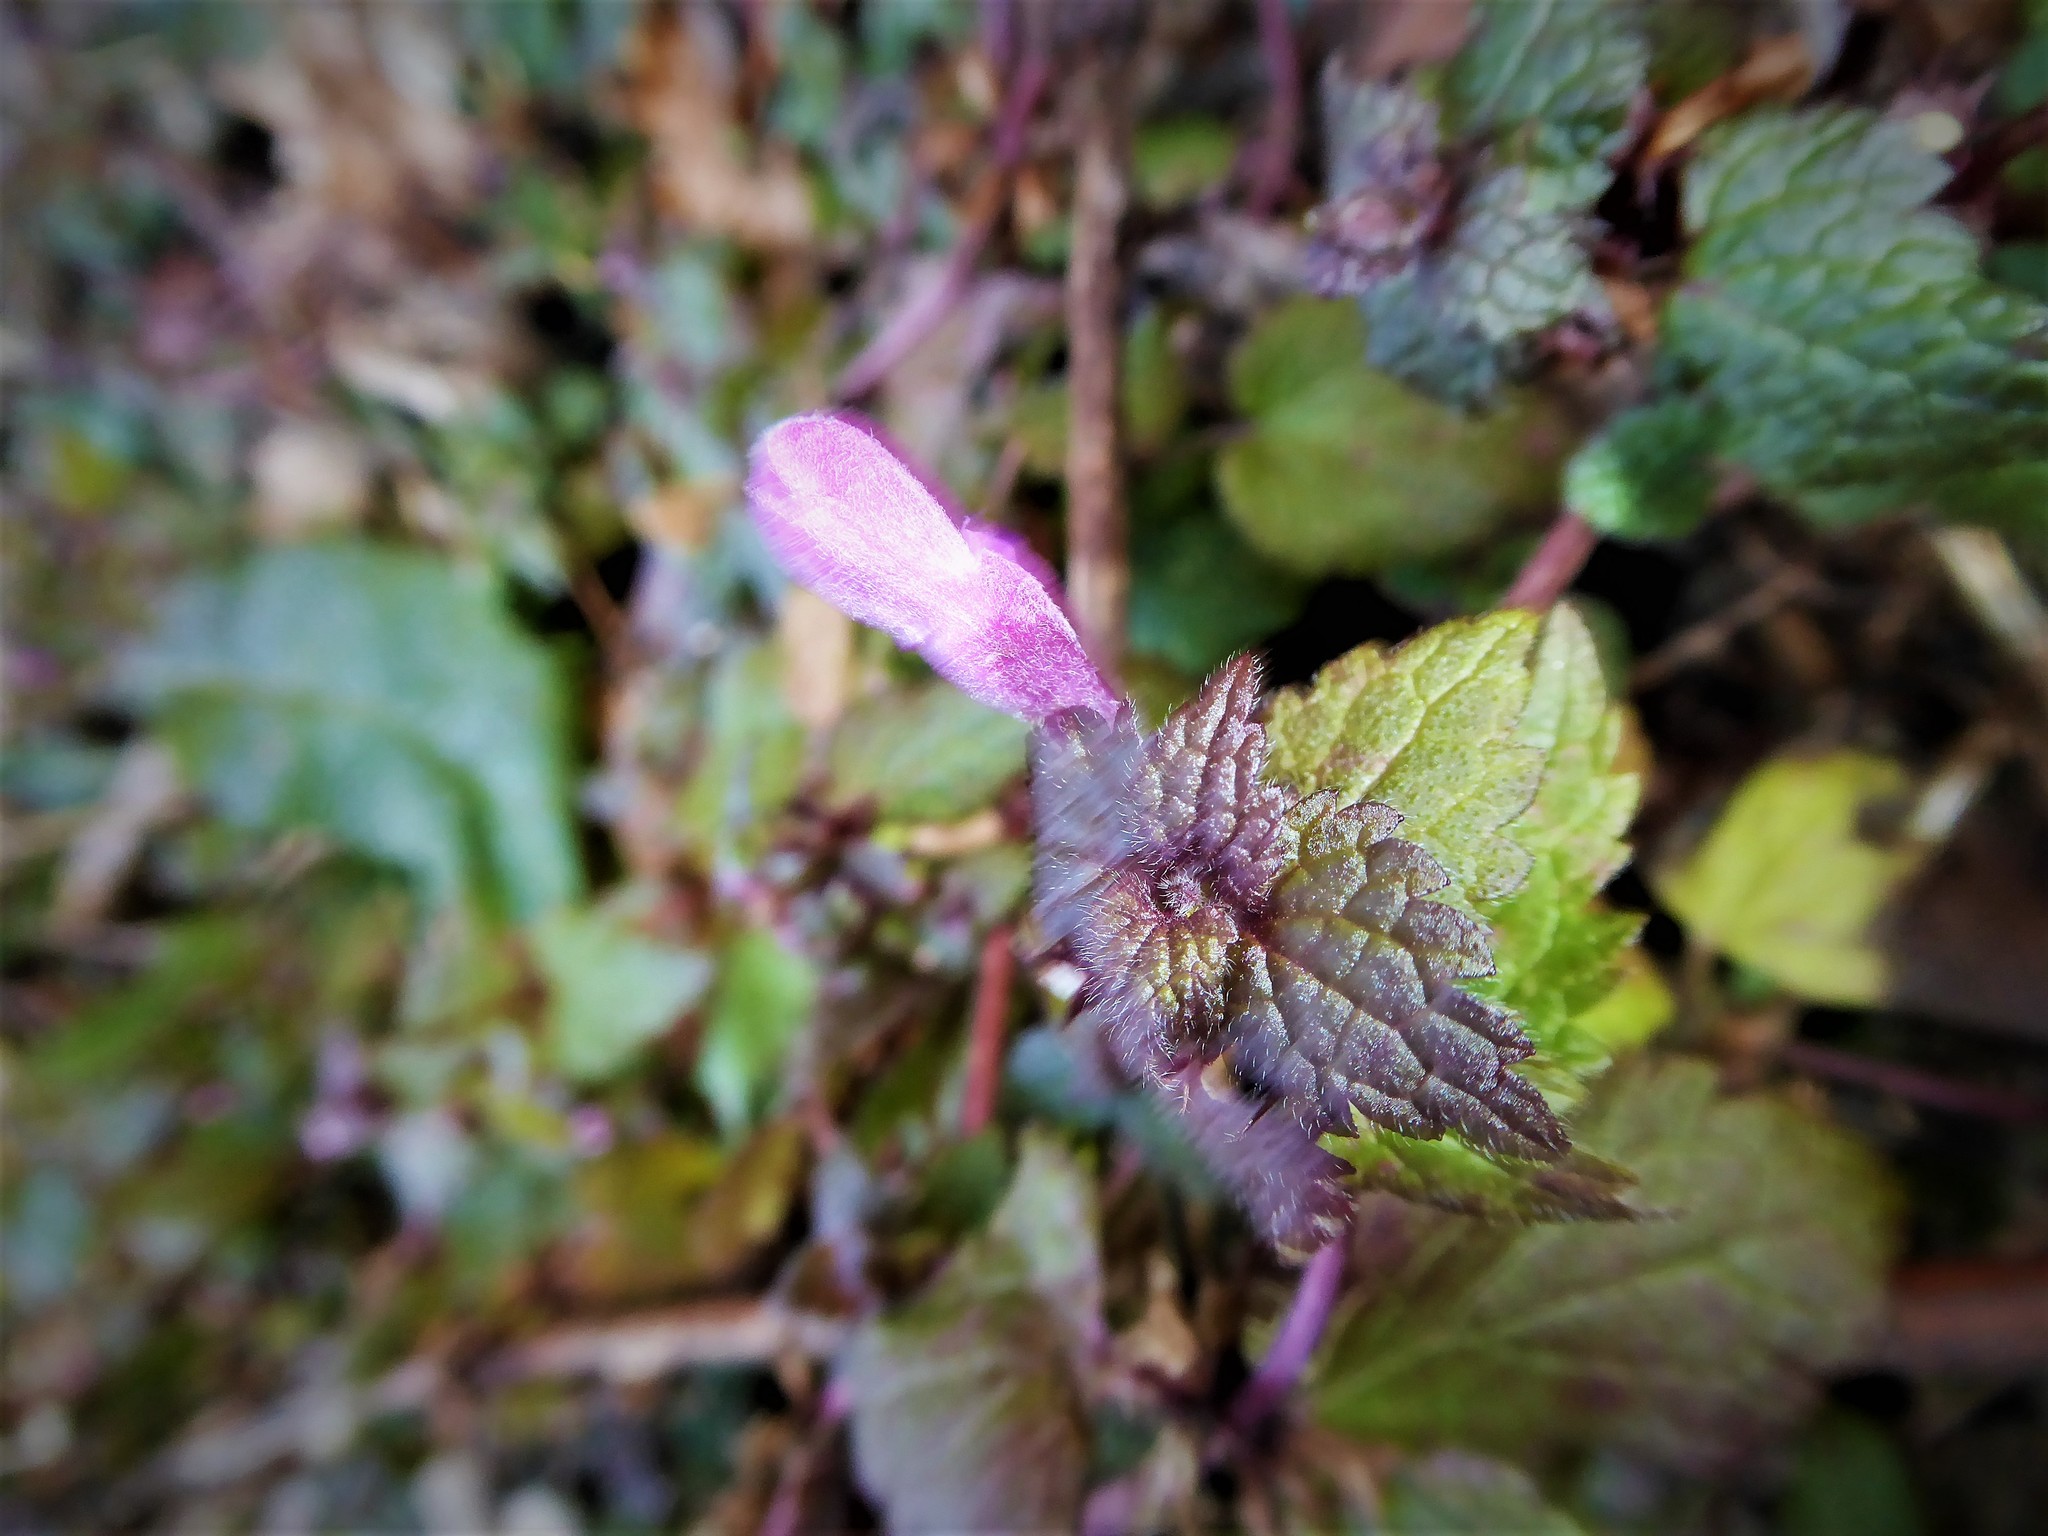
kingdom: Plantae
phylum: Tracheophyta
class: Magnoliopsida
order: Lamiales
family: Lamiaceae
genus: Lamium
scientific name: Lamium purpureum
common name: Red dead-nettle
